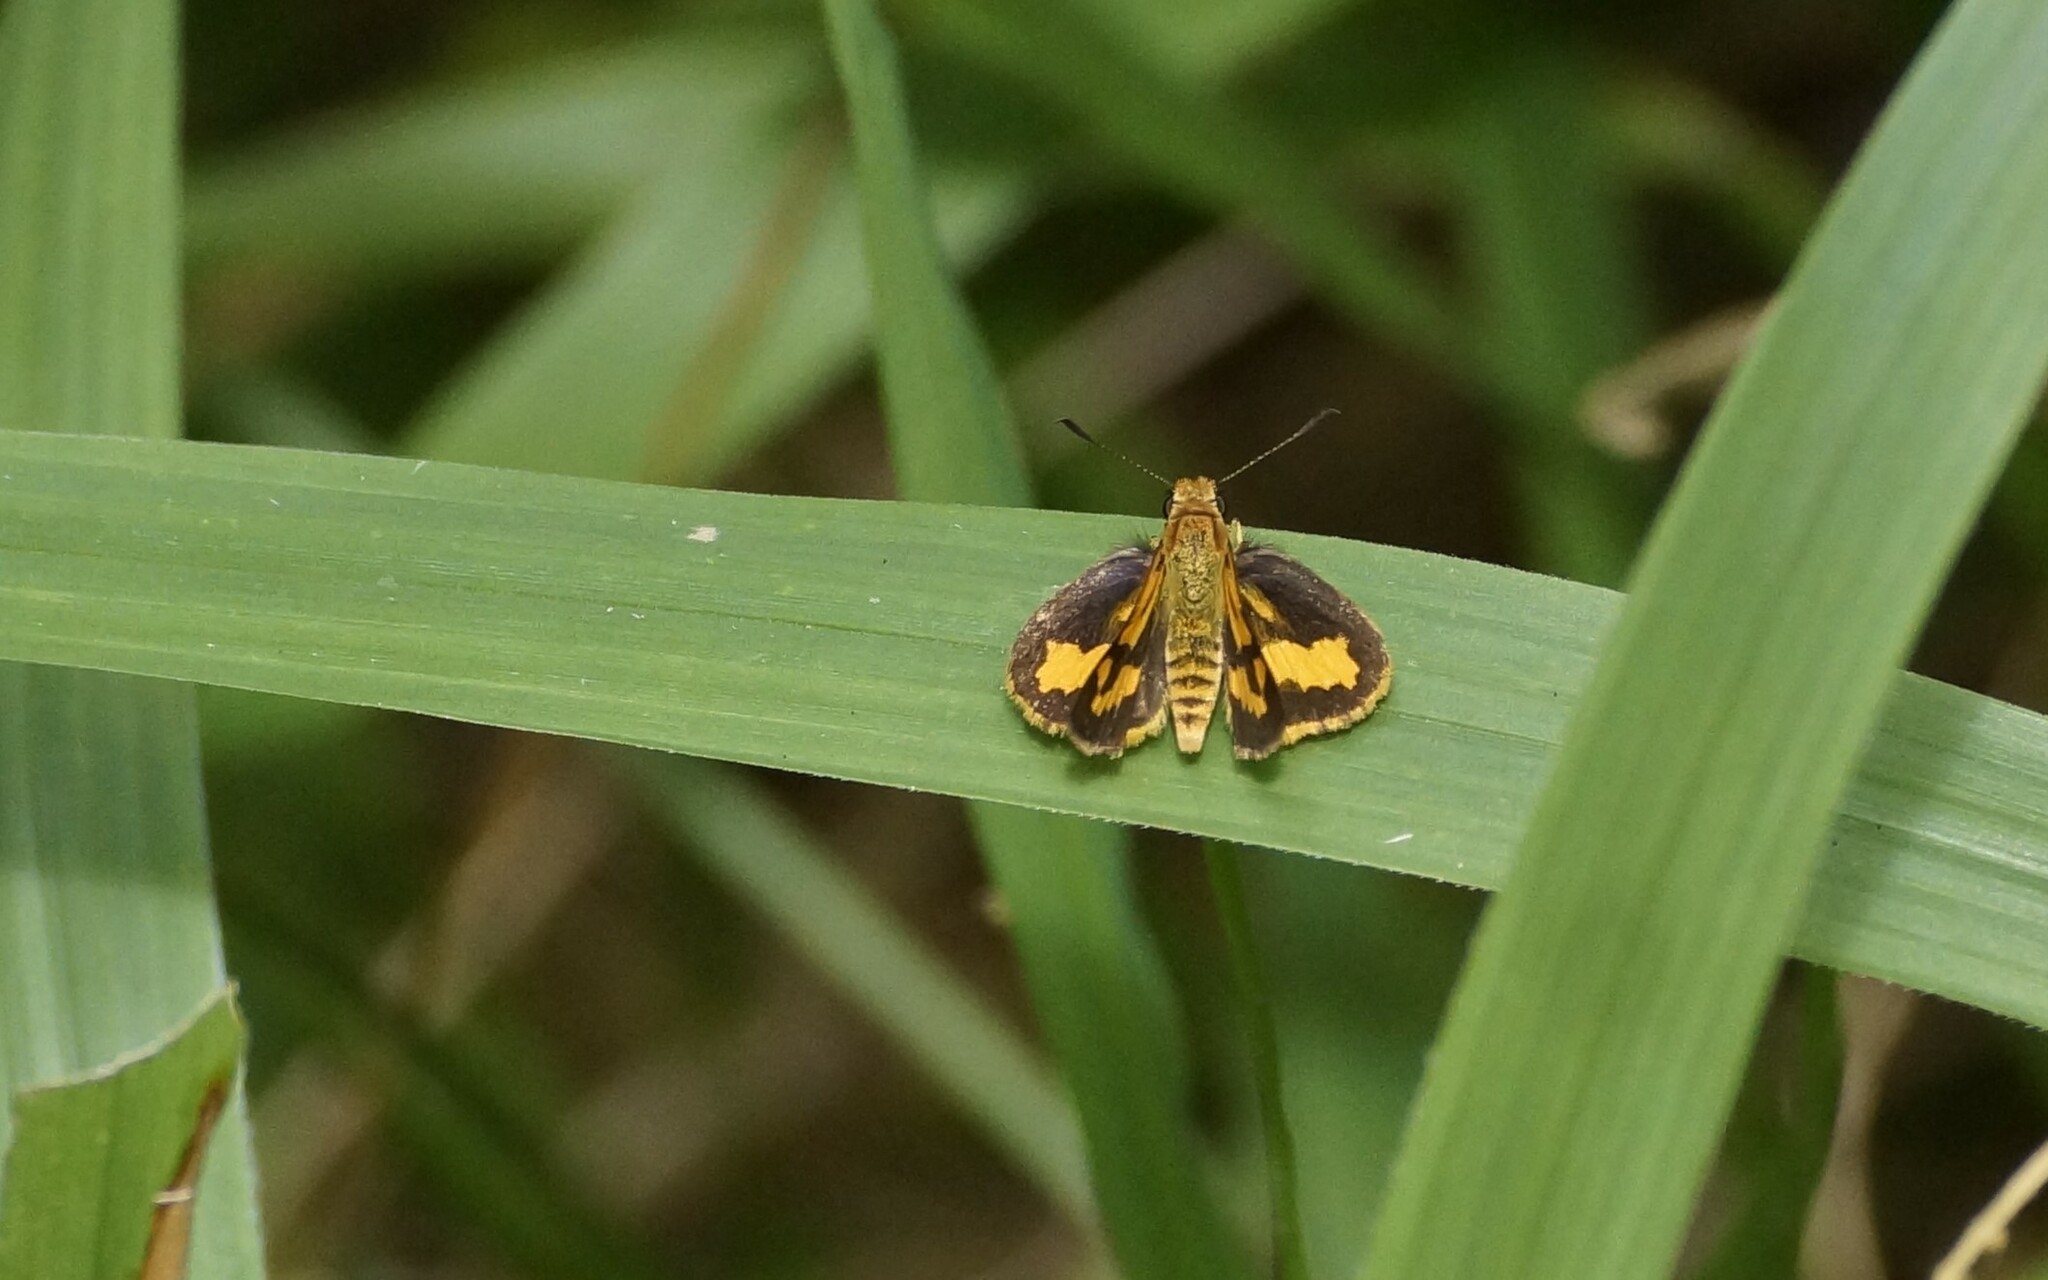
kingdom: Animalia
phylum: Arthropoda
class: Insecta
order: Lepidoptera
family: Hesperiidae
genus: Ocybadistes
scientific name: Ocybadistes ardea
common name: Dark orange dart
